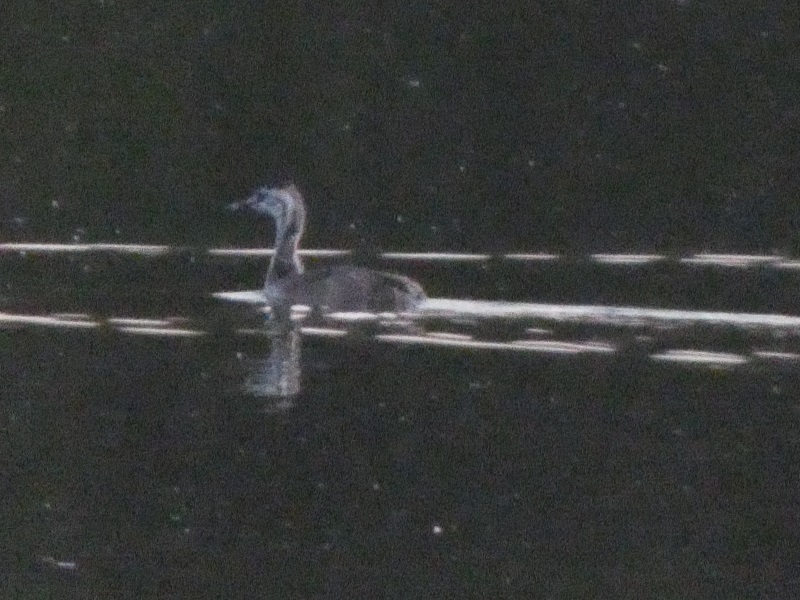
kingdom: Animalia
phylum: Chordata
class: Aves
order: Podicipediformes
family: Podicipedidae
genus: Podiceps
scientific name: Podiceps cristatus
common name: Great crested grebe
